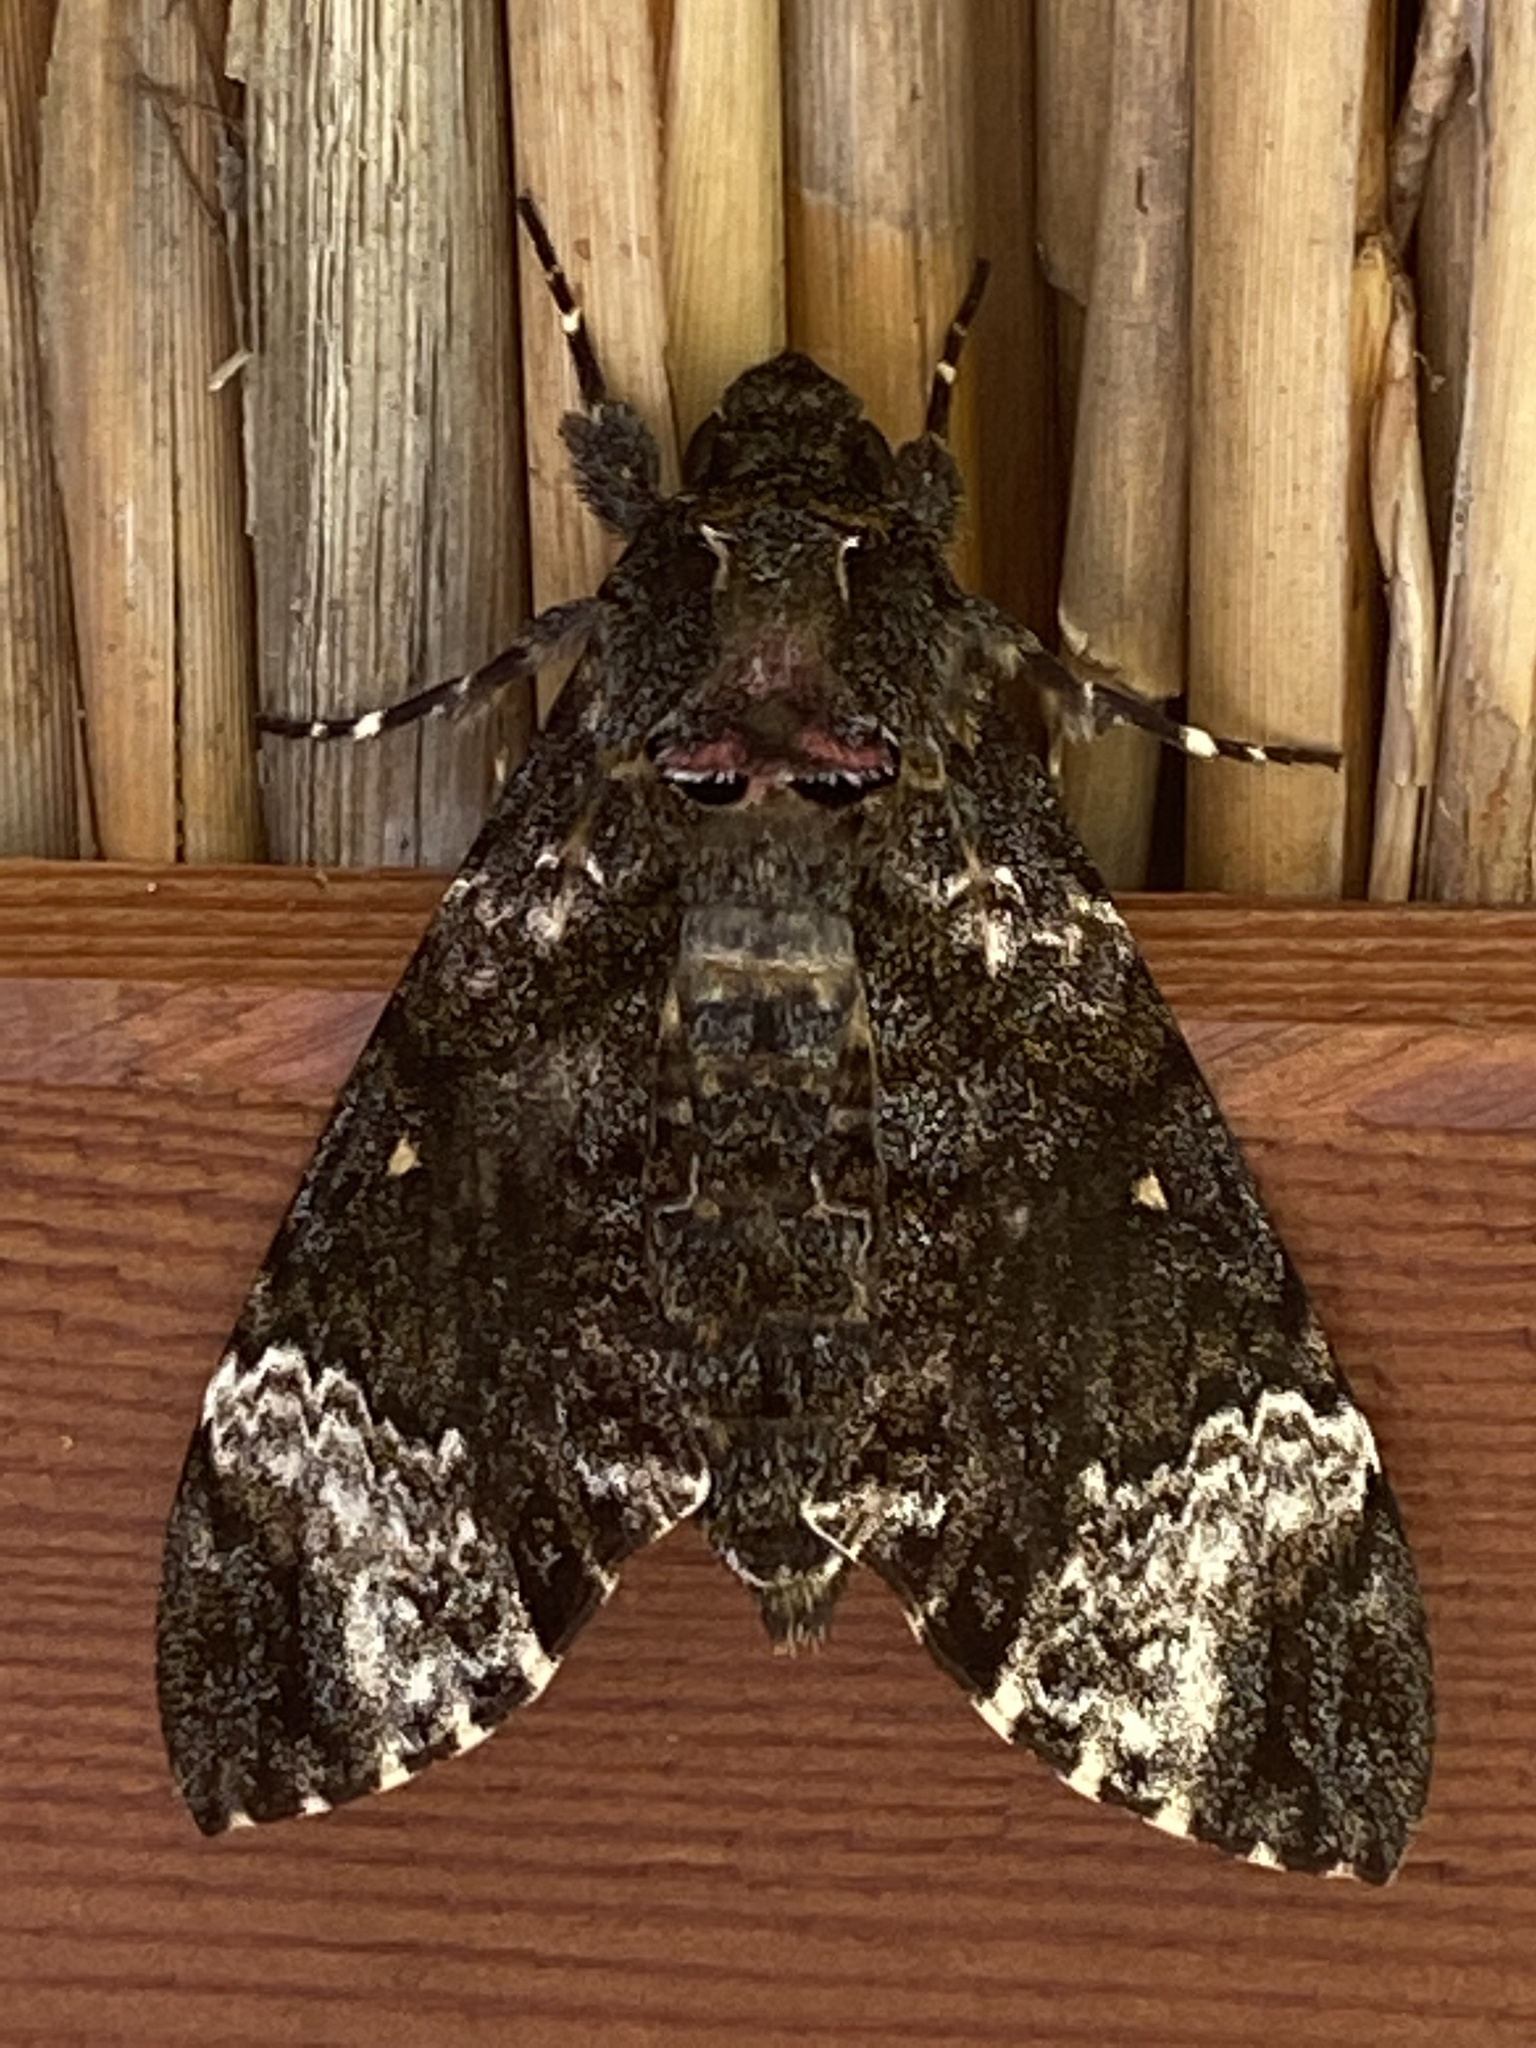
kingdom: Animalia
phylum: Arthropoda
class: Insecta
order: Lepidoptera
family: Sphingidae
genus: Coelonia
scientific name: Coelonia fulvinotata
